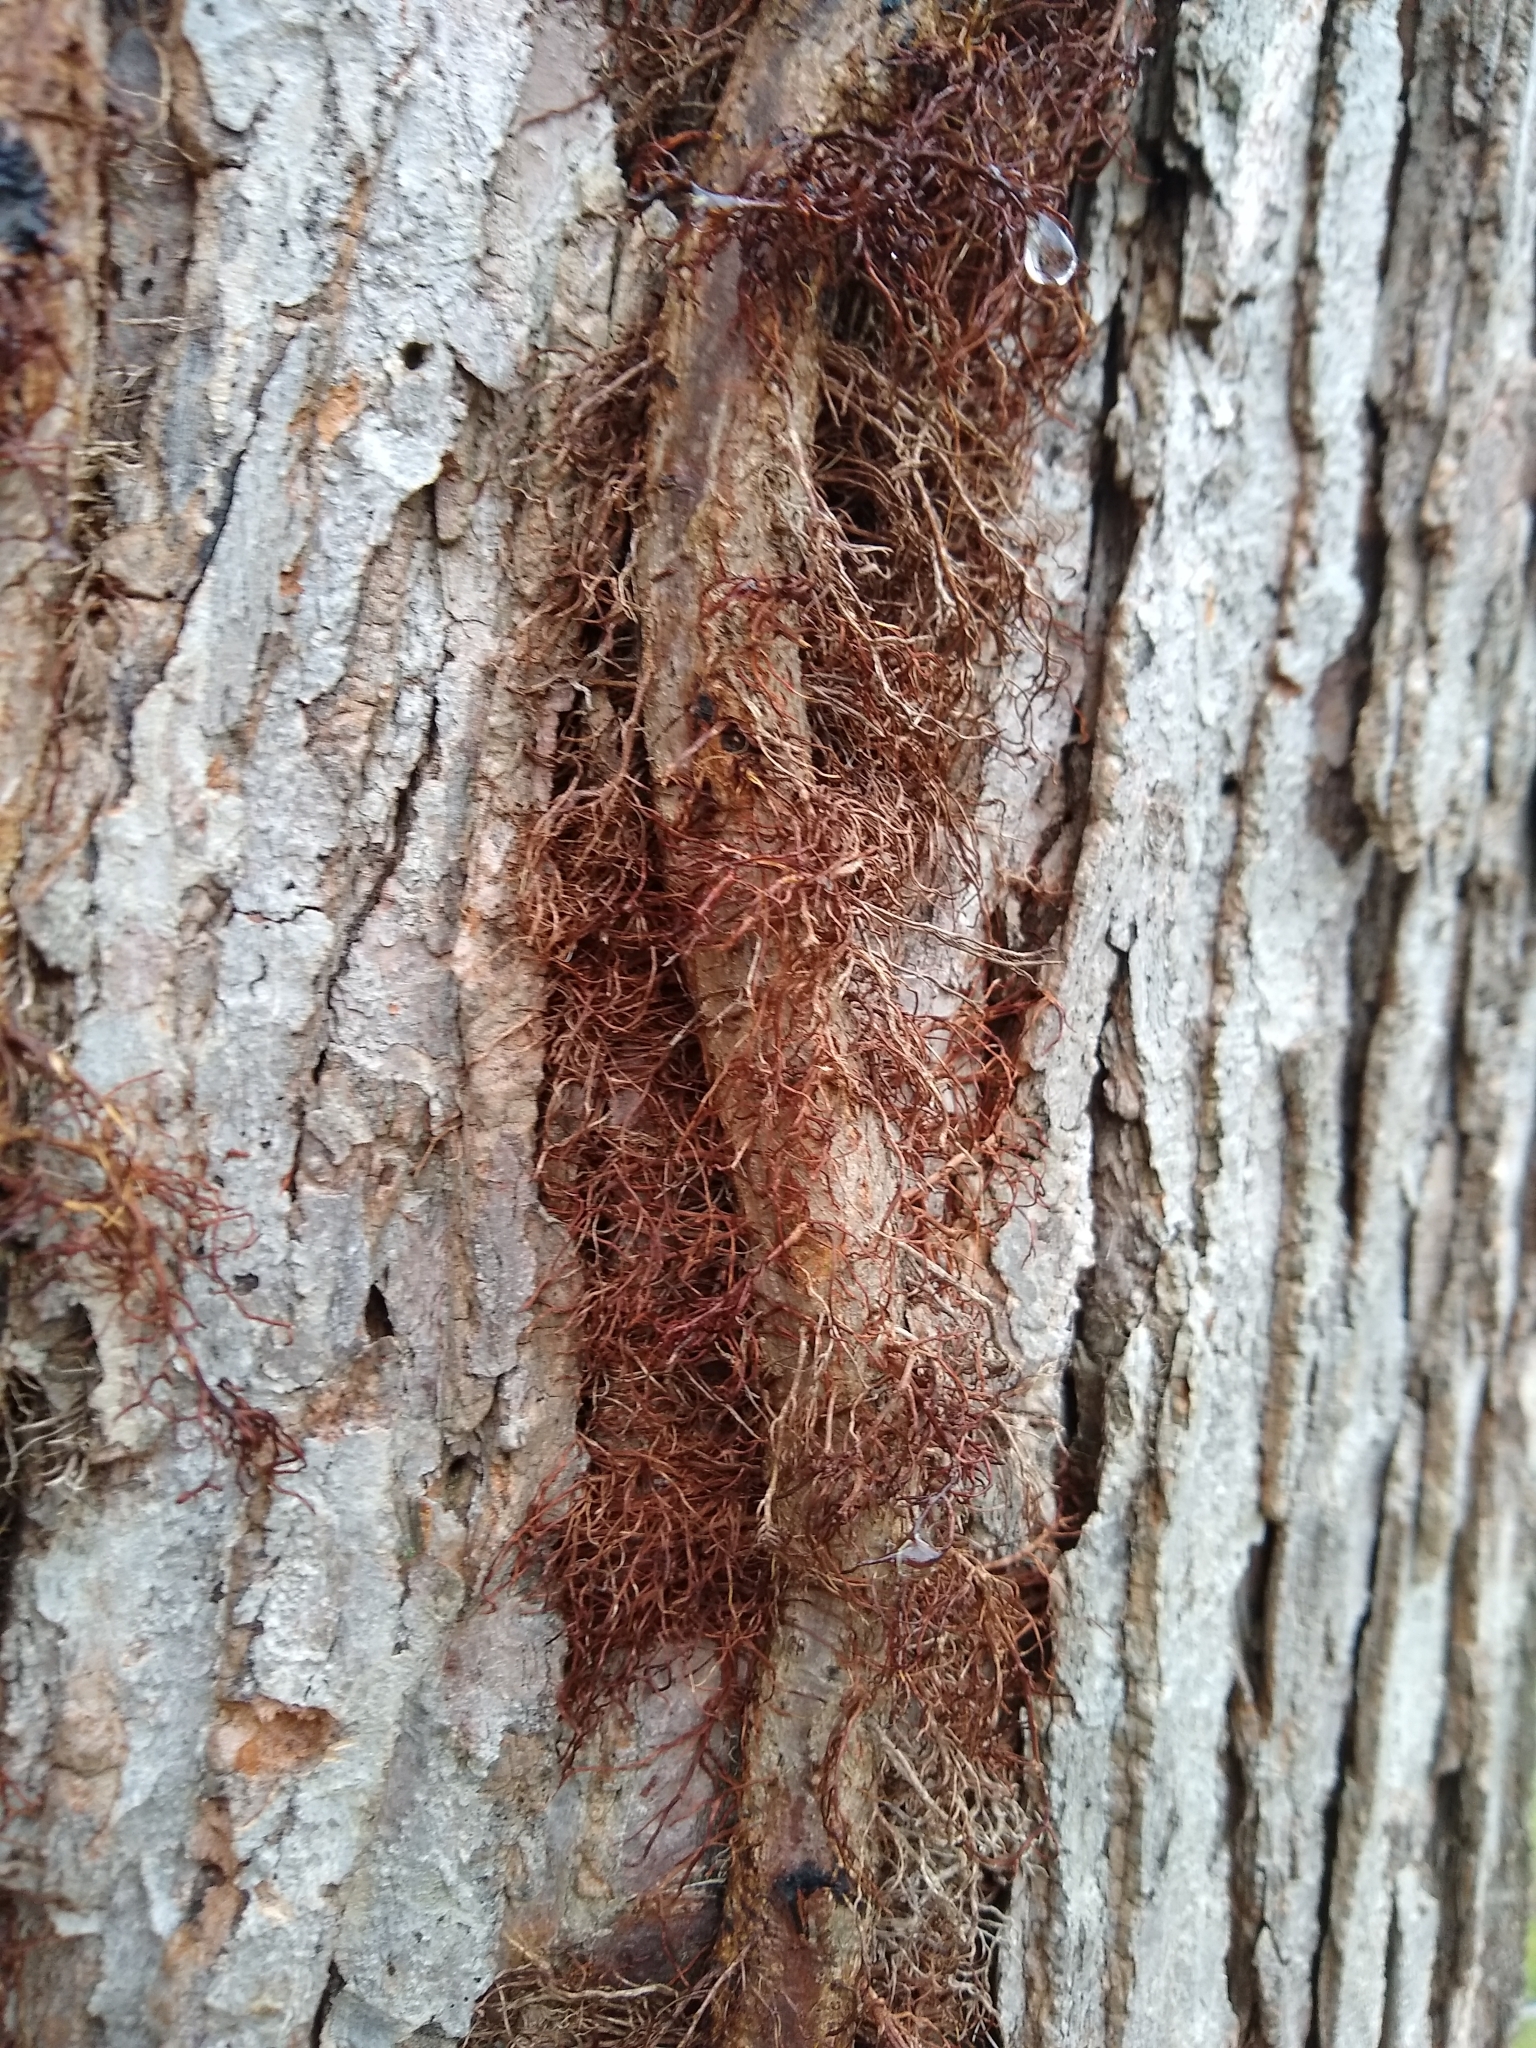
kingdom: Plantae
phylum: Tracheophyta
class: Magnoliopsida
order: Sapindales
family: Anacardiaceae
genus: Toxicodendron
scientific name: Toxicodendron radicans
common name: Poison ivy
